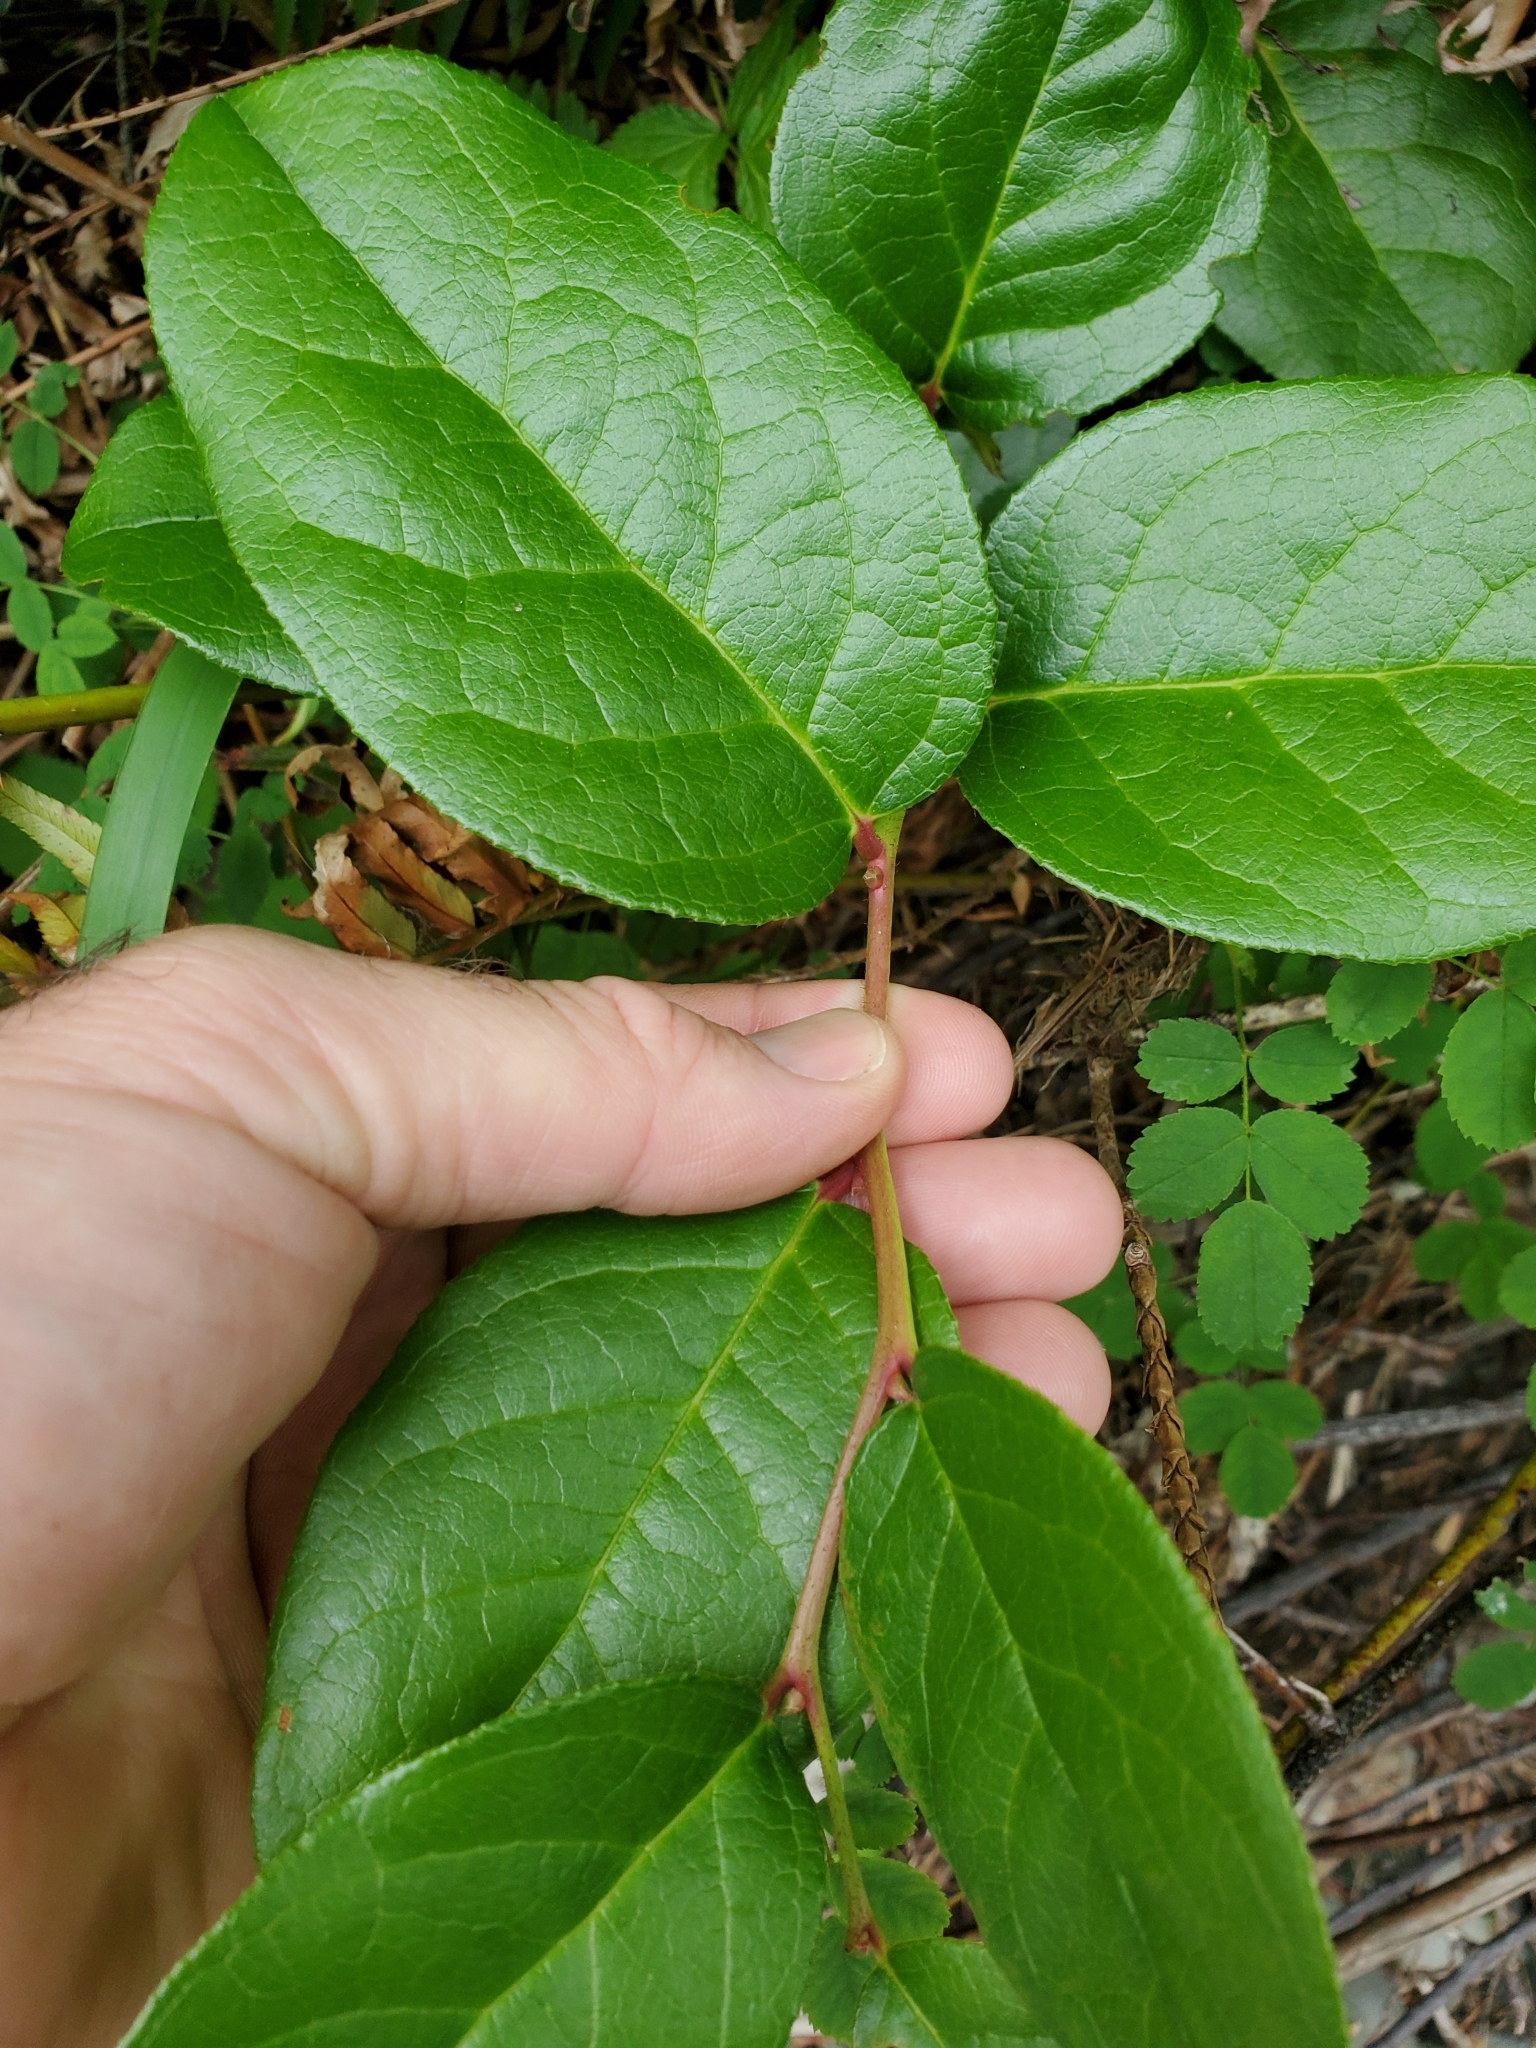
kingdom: Plantae
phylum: Tracheophyta
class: Magnoliopsida
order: Ericales
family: Ericaceae
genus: Gaultheria
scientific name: Gaultheria shallon
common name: Shallon
